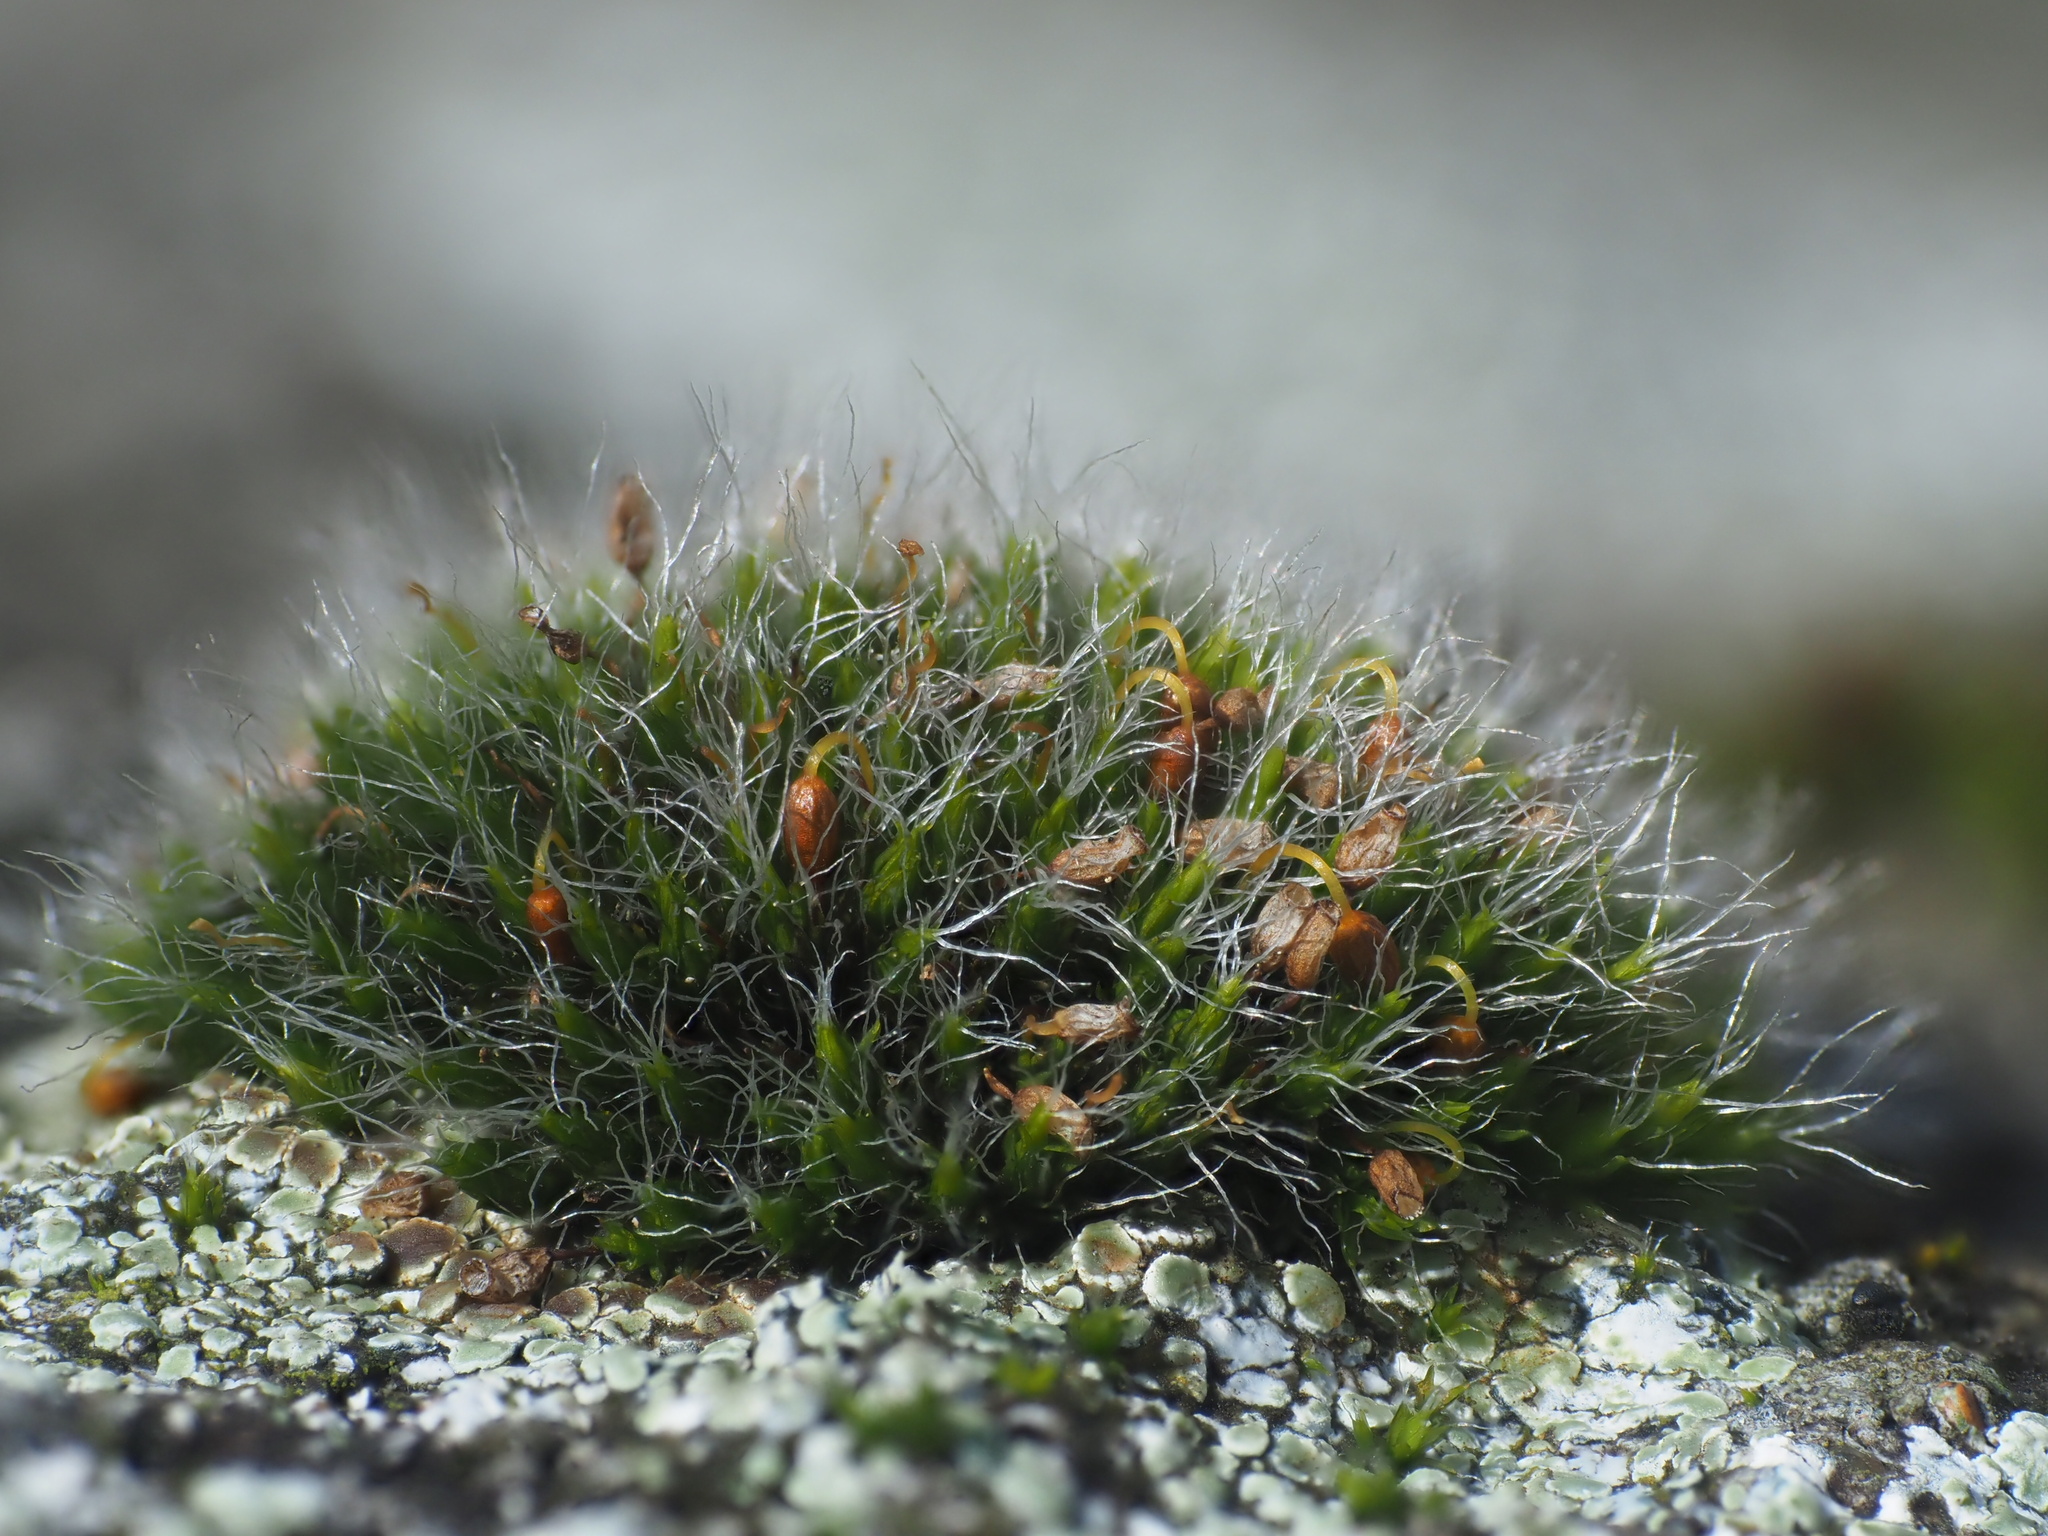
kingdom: Plantae
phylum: Bryophyta
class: Bryopsida
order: Grimmiales
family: Grimmiaceae
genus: Grimmia
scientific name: Grimmia pulvinata
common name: Grey-cushioned grimmia
